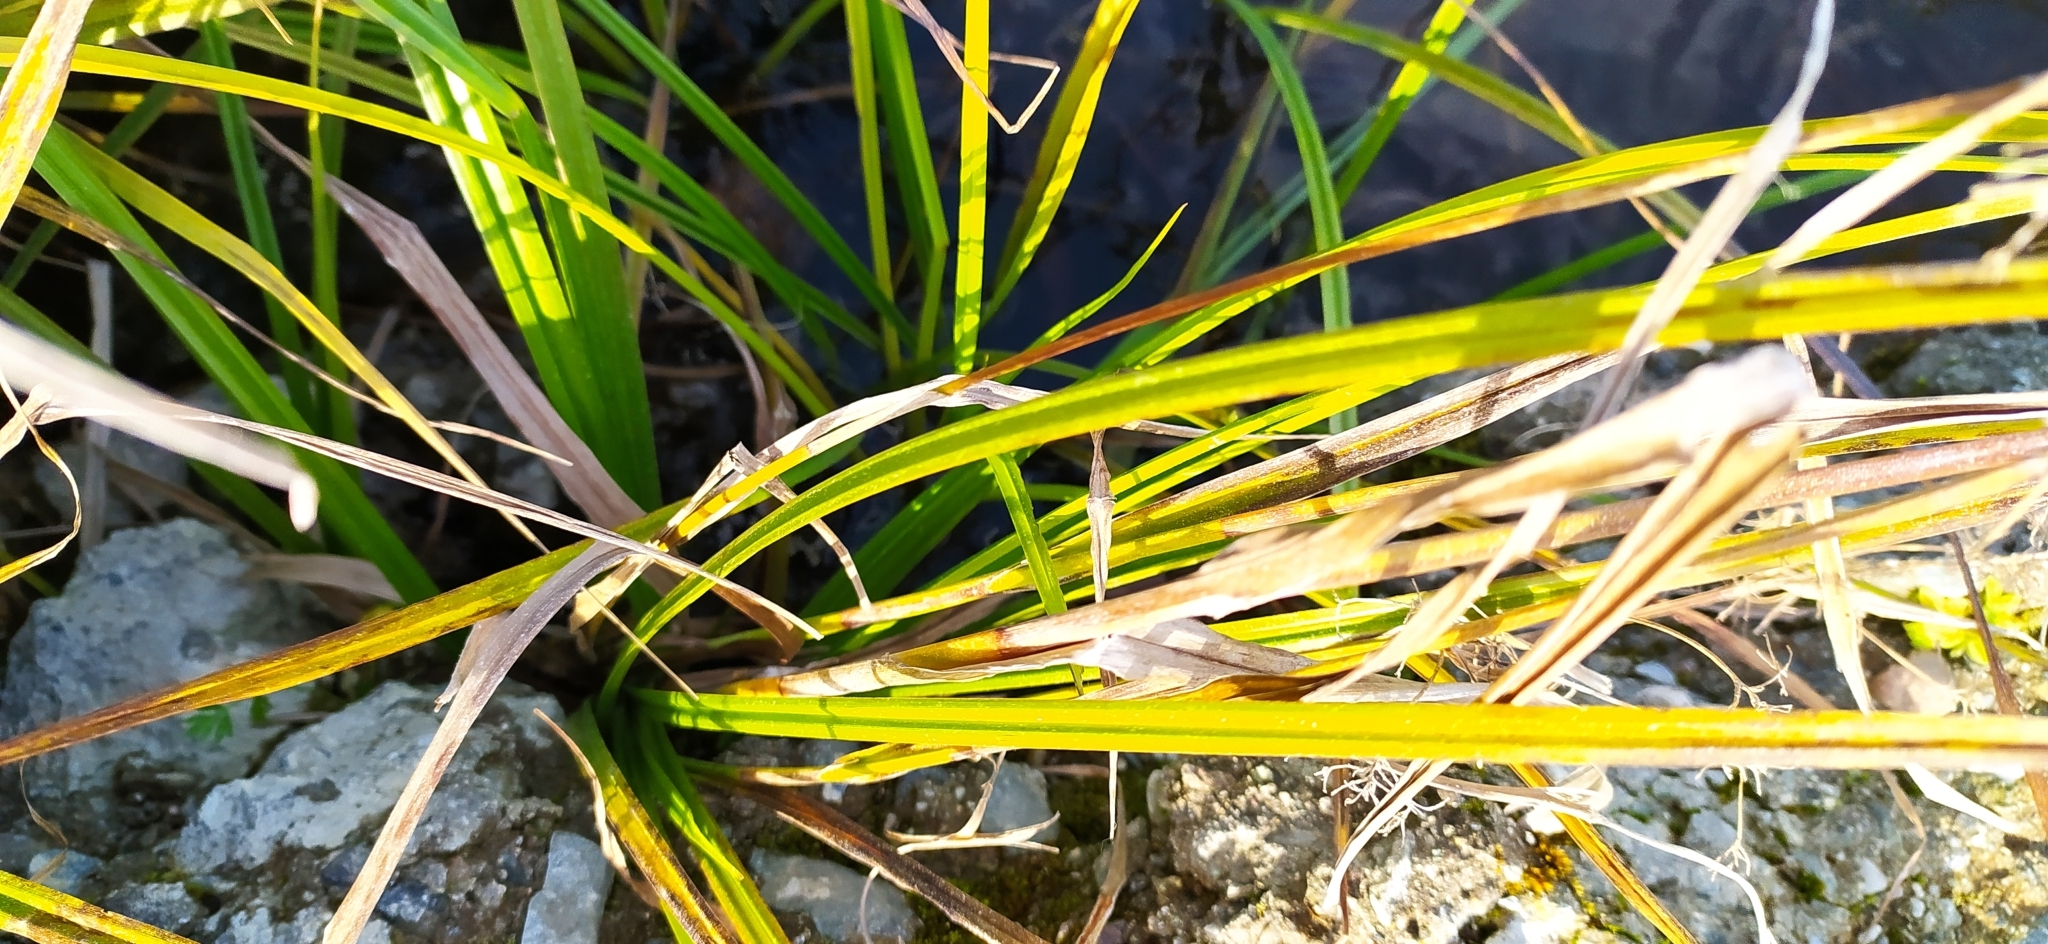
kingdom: Plantae
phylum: Tracheophyta
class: Liliopsida
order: Poales
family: Cyperaceae
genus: Scirpus
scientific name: Scirpus radicans
